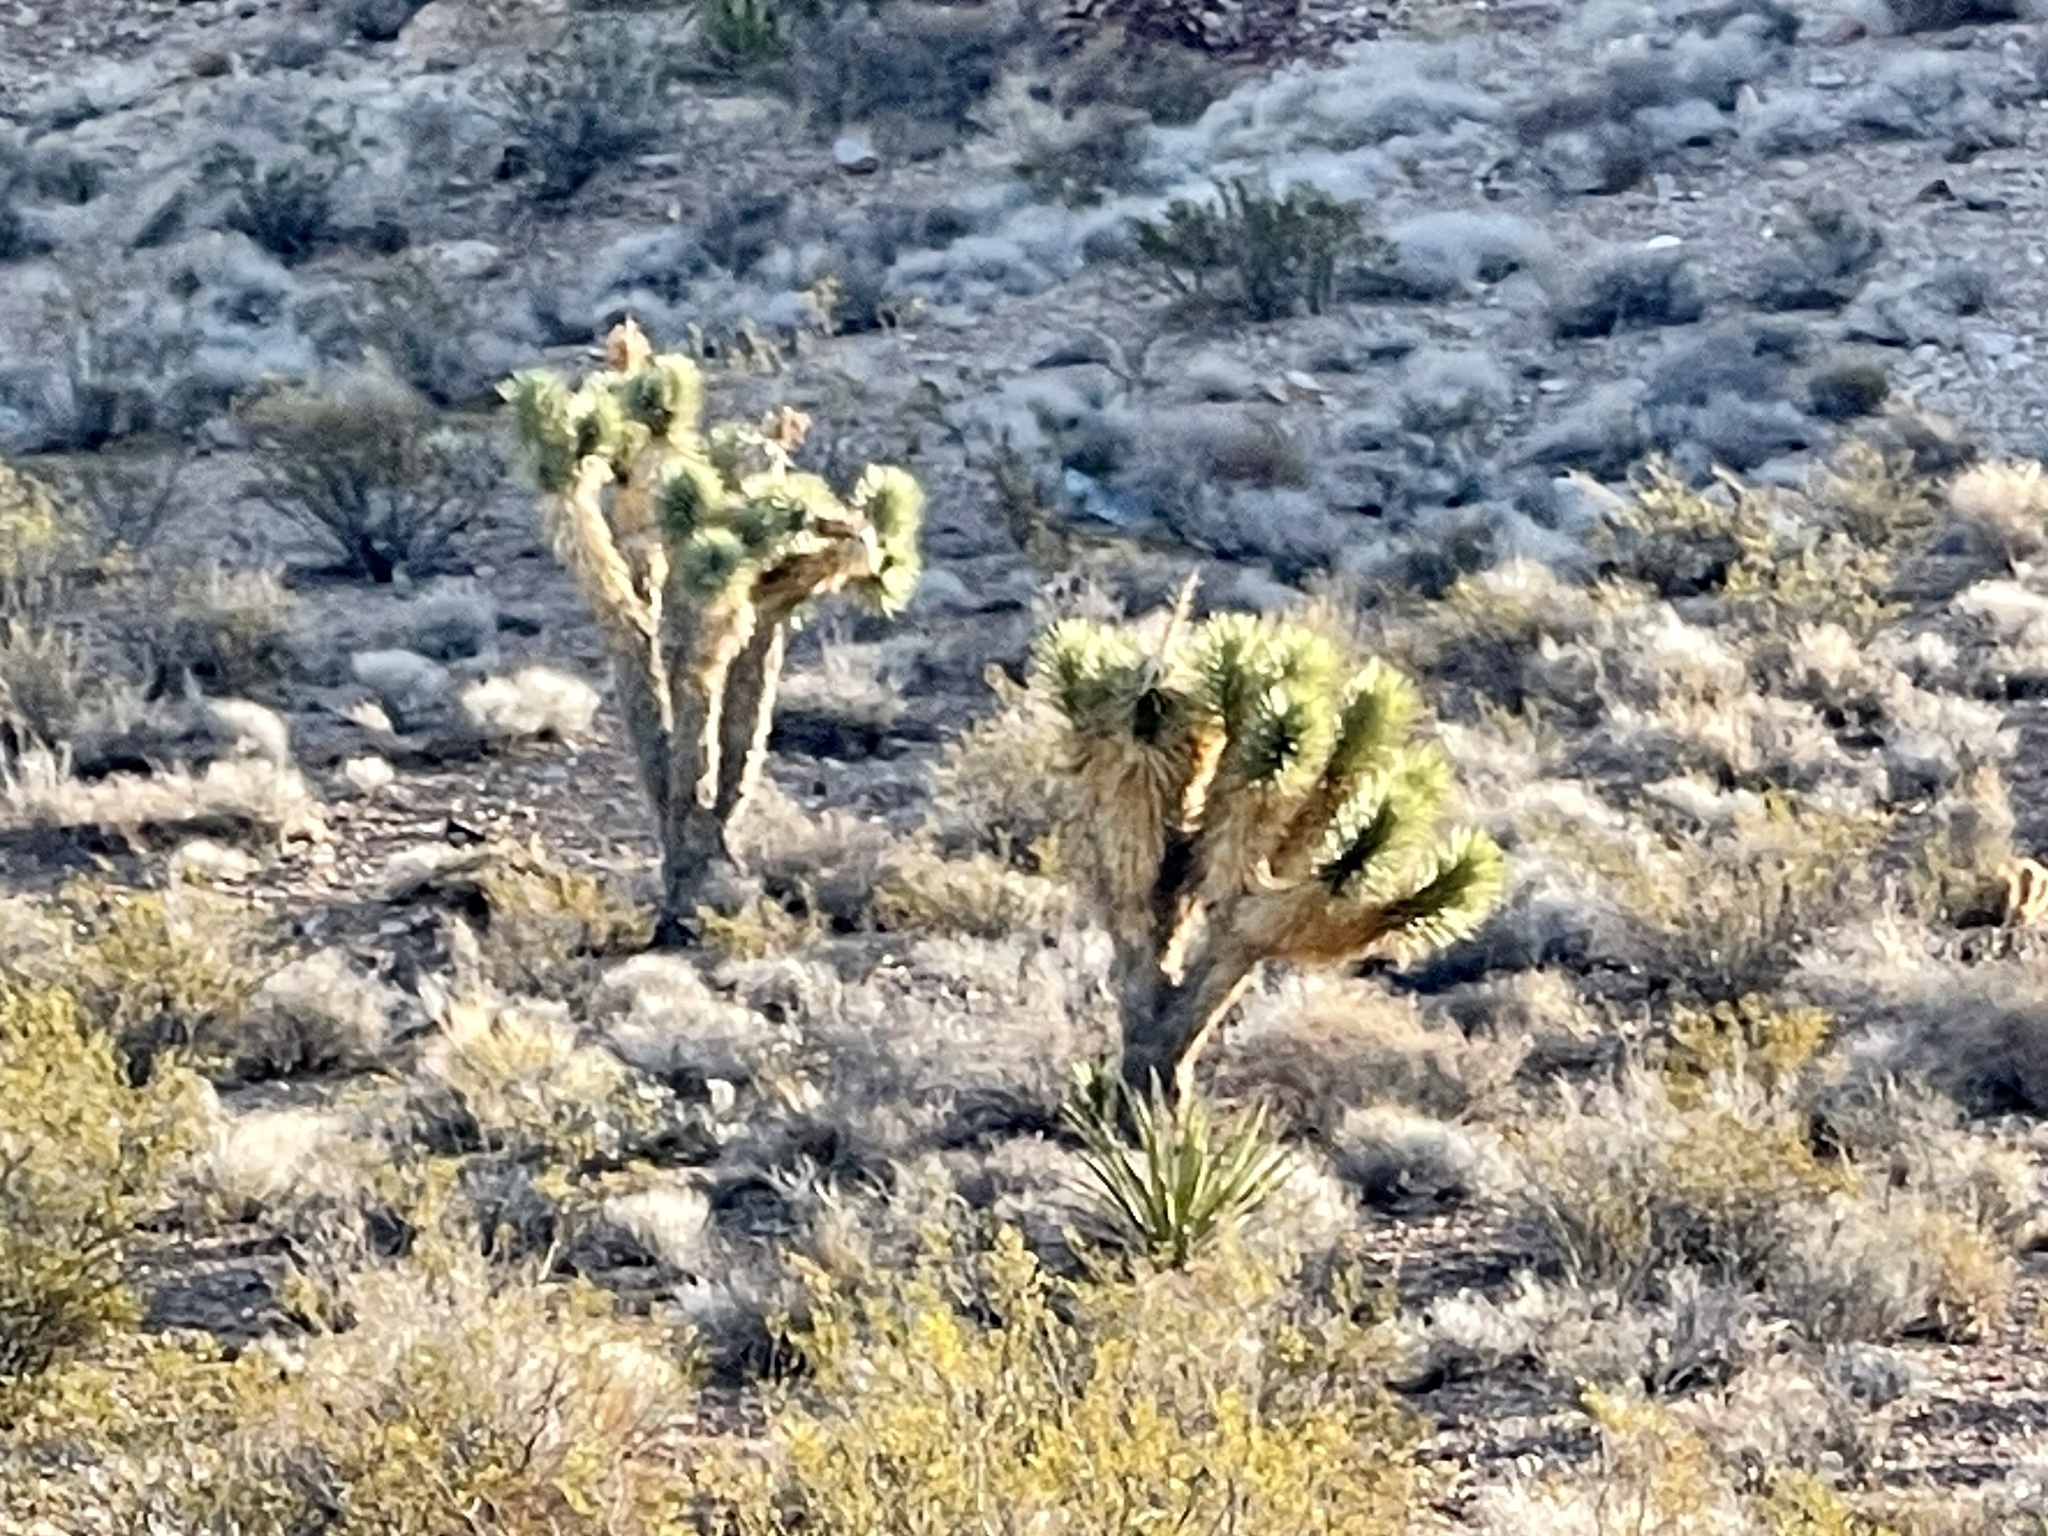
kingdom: Plantae
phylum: Tracheophyta
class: Liliopsida
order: Asparagales
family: Asparagaceae
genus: Yucca
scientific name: Yucca brevifolia
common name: Joshua tree
